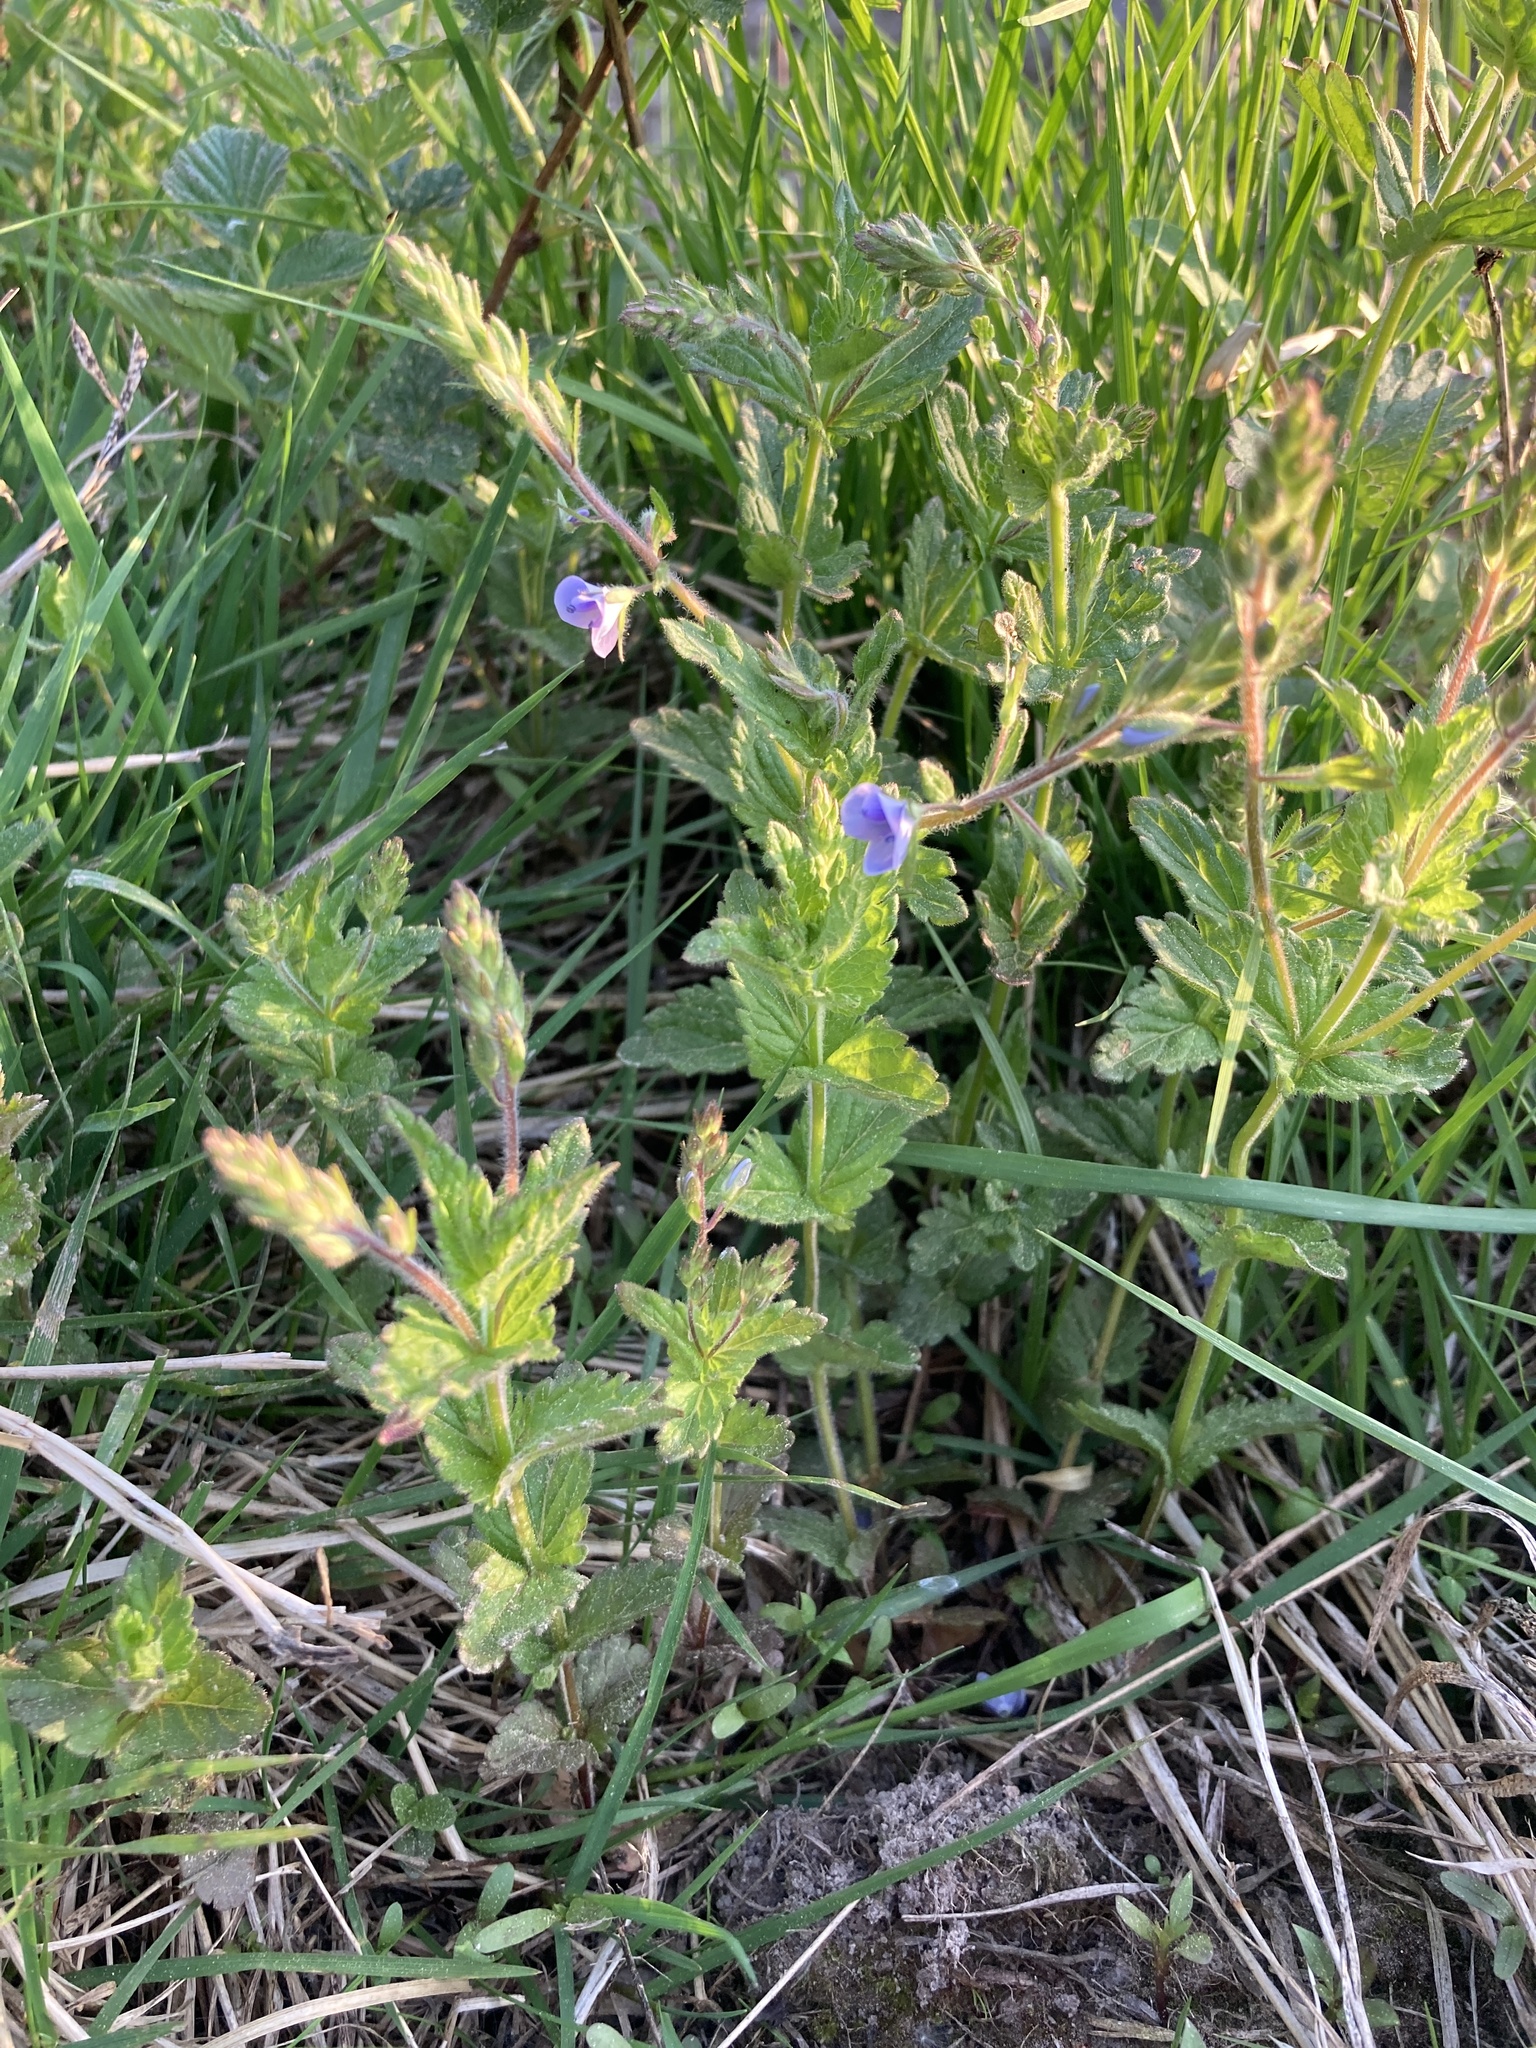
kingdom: Plantae
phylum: Tracheophyta
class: Magnoliopsida
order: Lamiales
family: Plantaginaceae
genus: Veronica
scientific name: Veronica chamaedrys
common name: Germander speedwell
